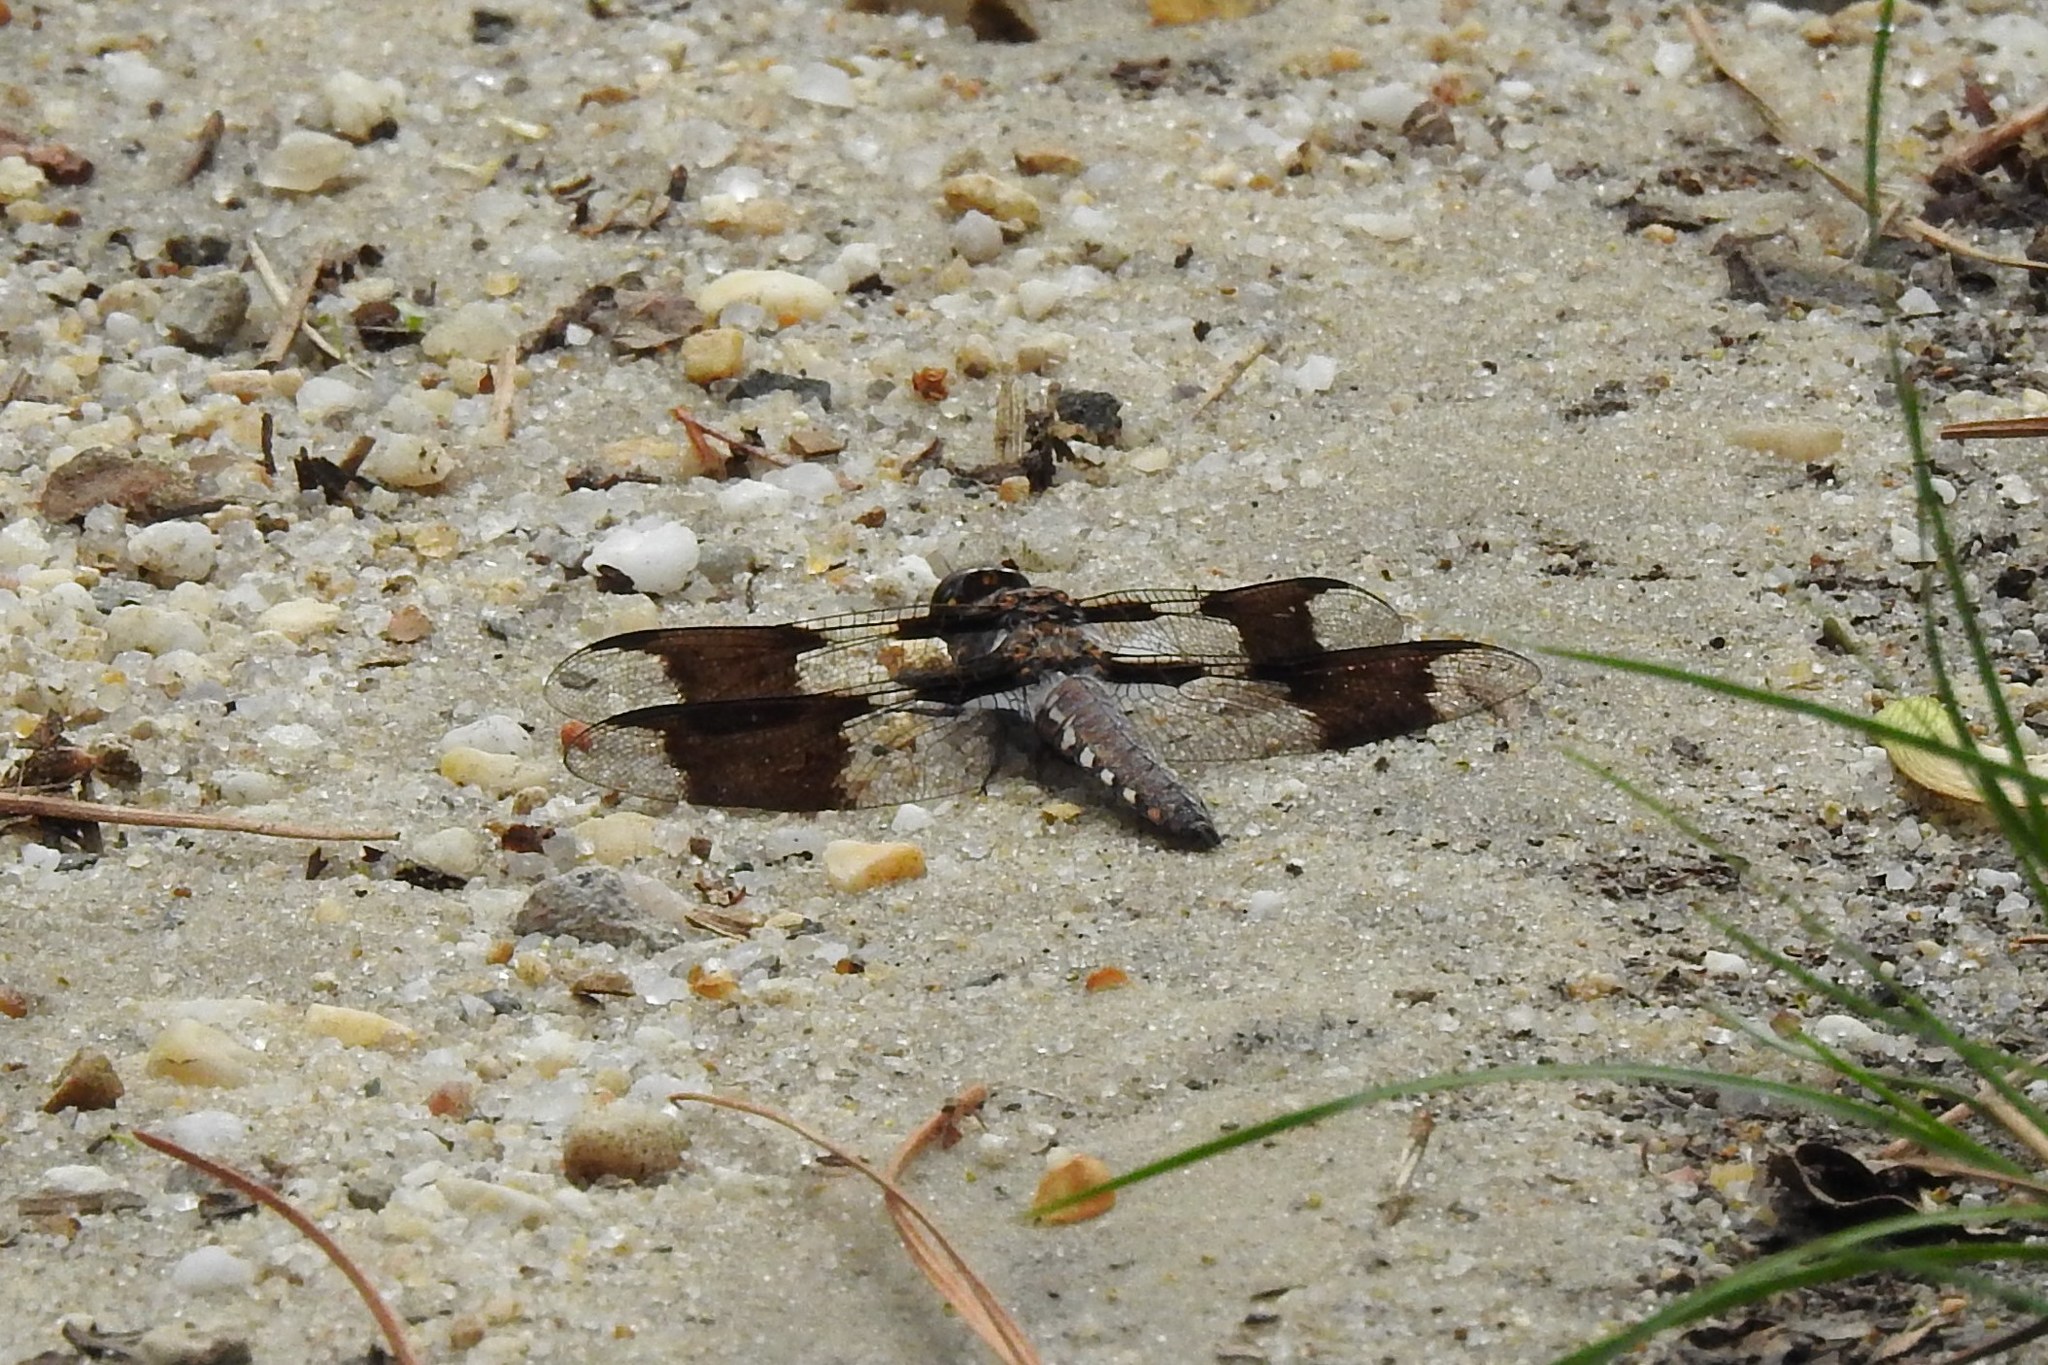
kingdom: Animalia
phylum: Arthropoda
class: Insecta
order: Odonata
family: Libellulidae
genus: Plathemis
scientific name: Plathemis lydia
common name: Common whitetail
